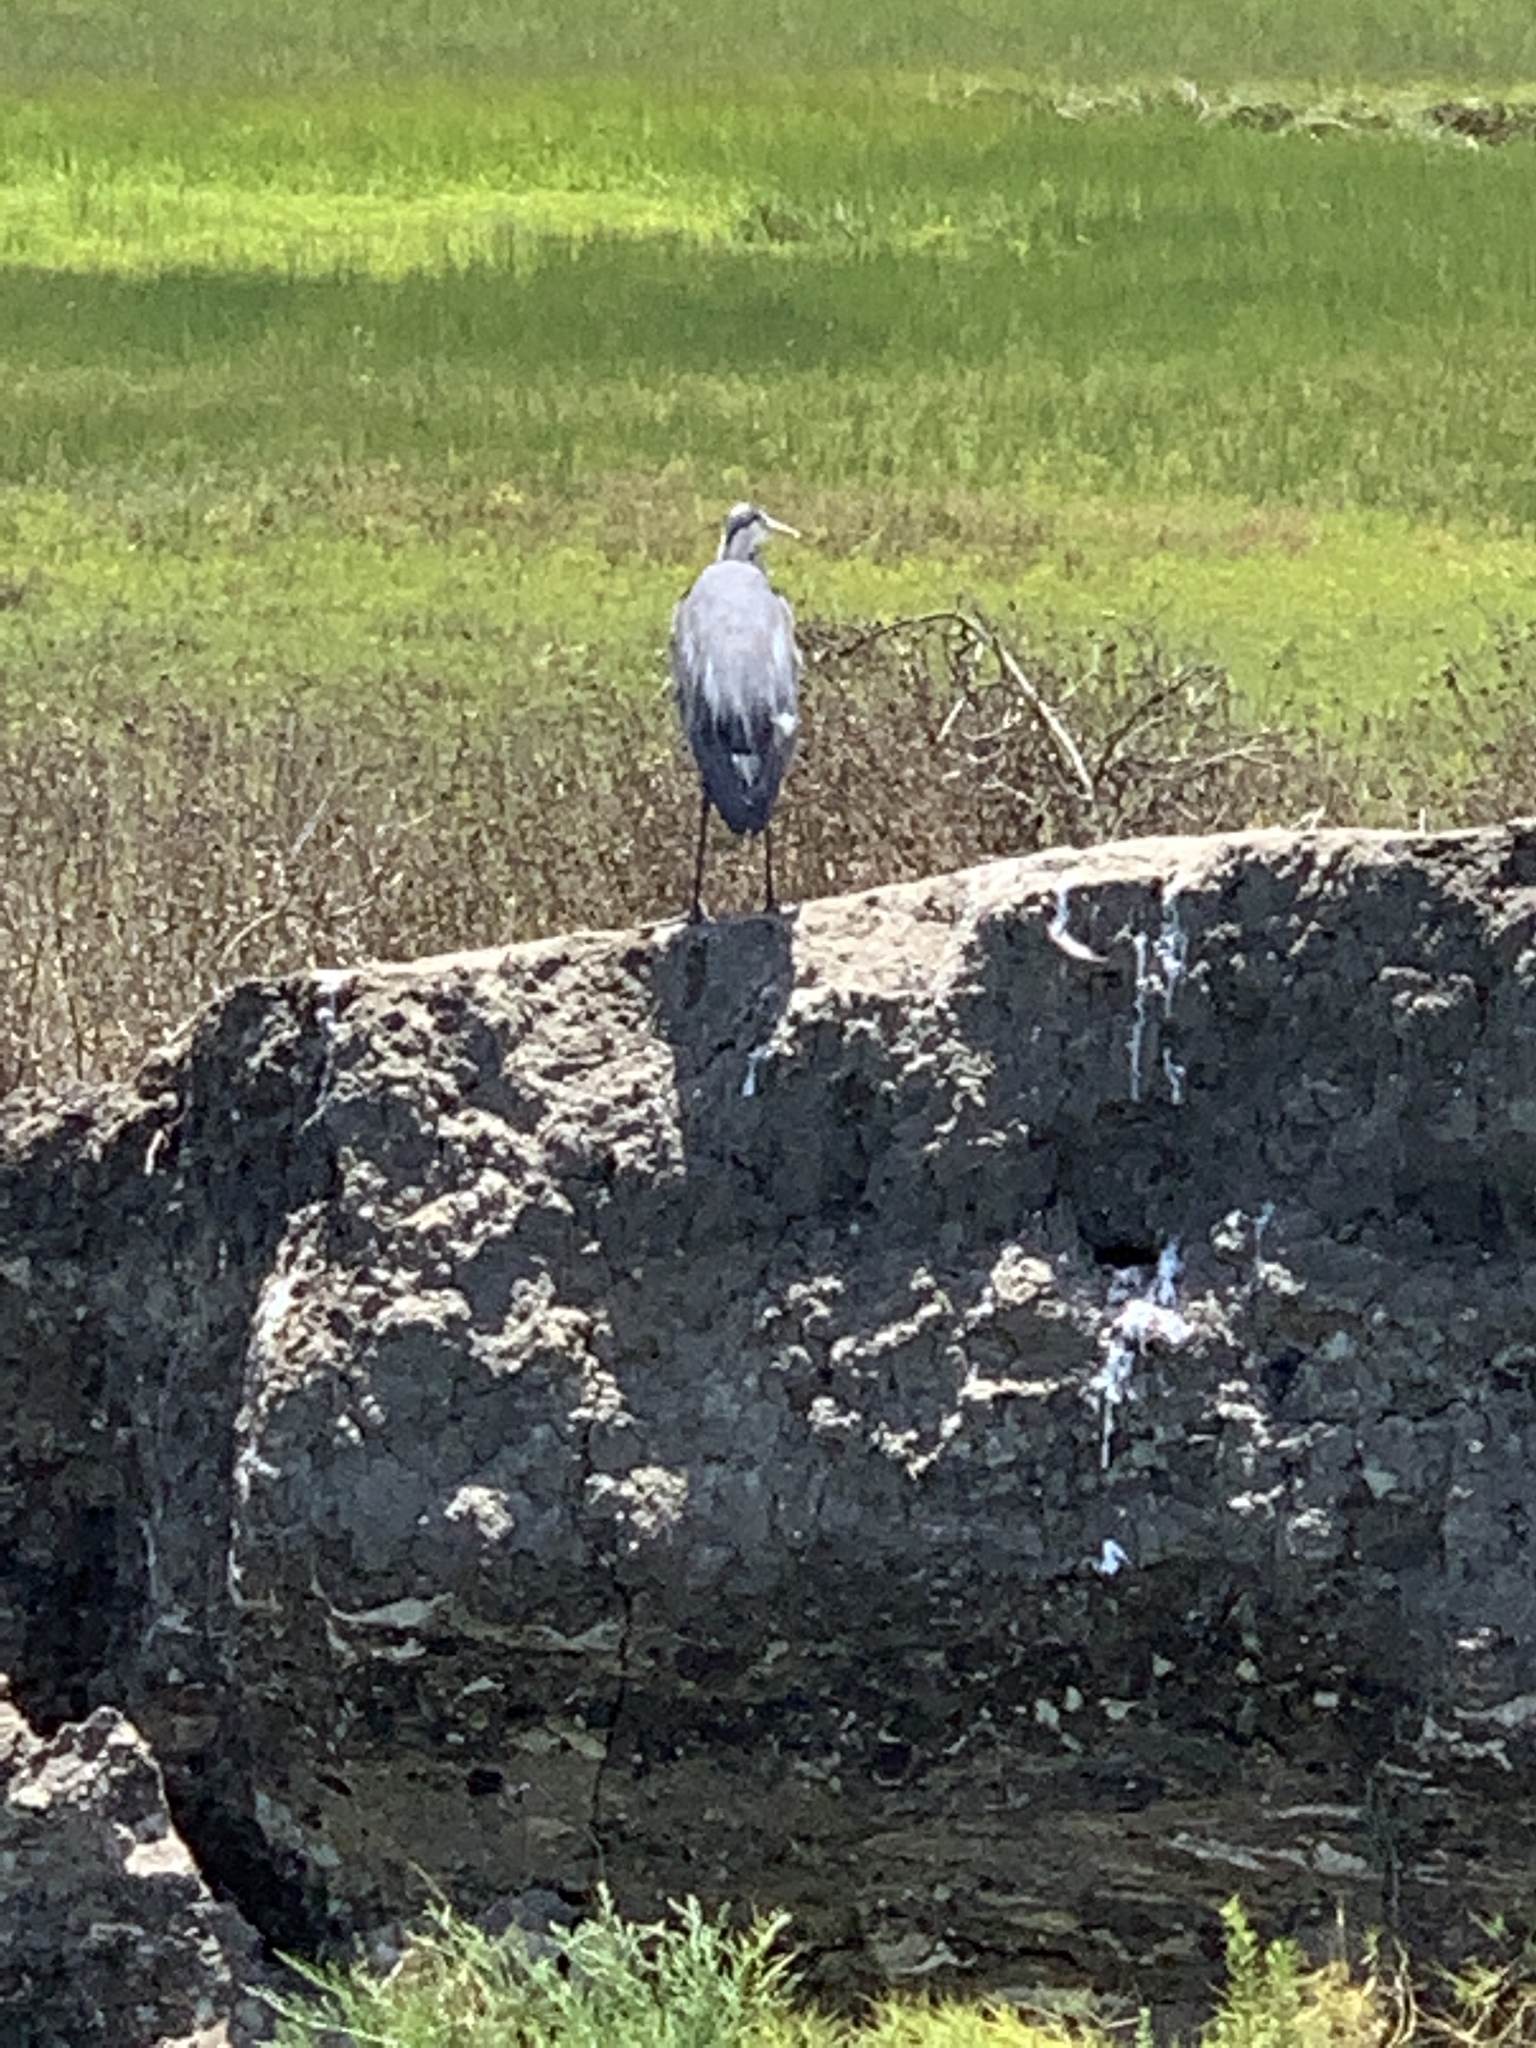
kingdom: Animalia
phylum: Chordata
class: Aves
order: Pelecaniformes
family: Ardeidae
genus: Ardea
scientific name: Ardea herodias
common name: Great blue heron
